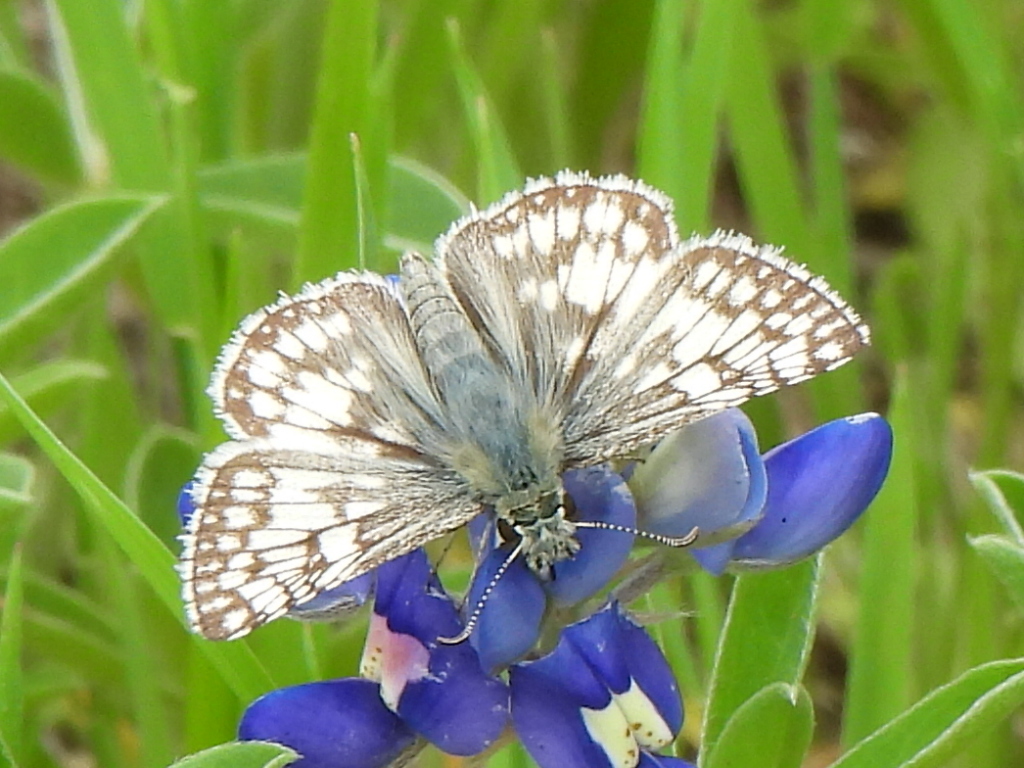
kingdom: Animalia
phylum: Arthropoda
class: Insecta
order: Lepidoptera
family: Hesperiidae
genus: Burnsius
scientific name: Burnsius
